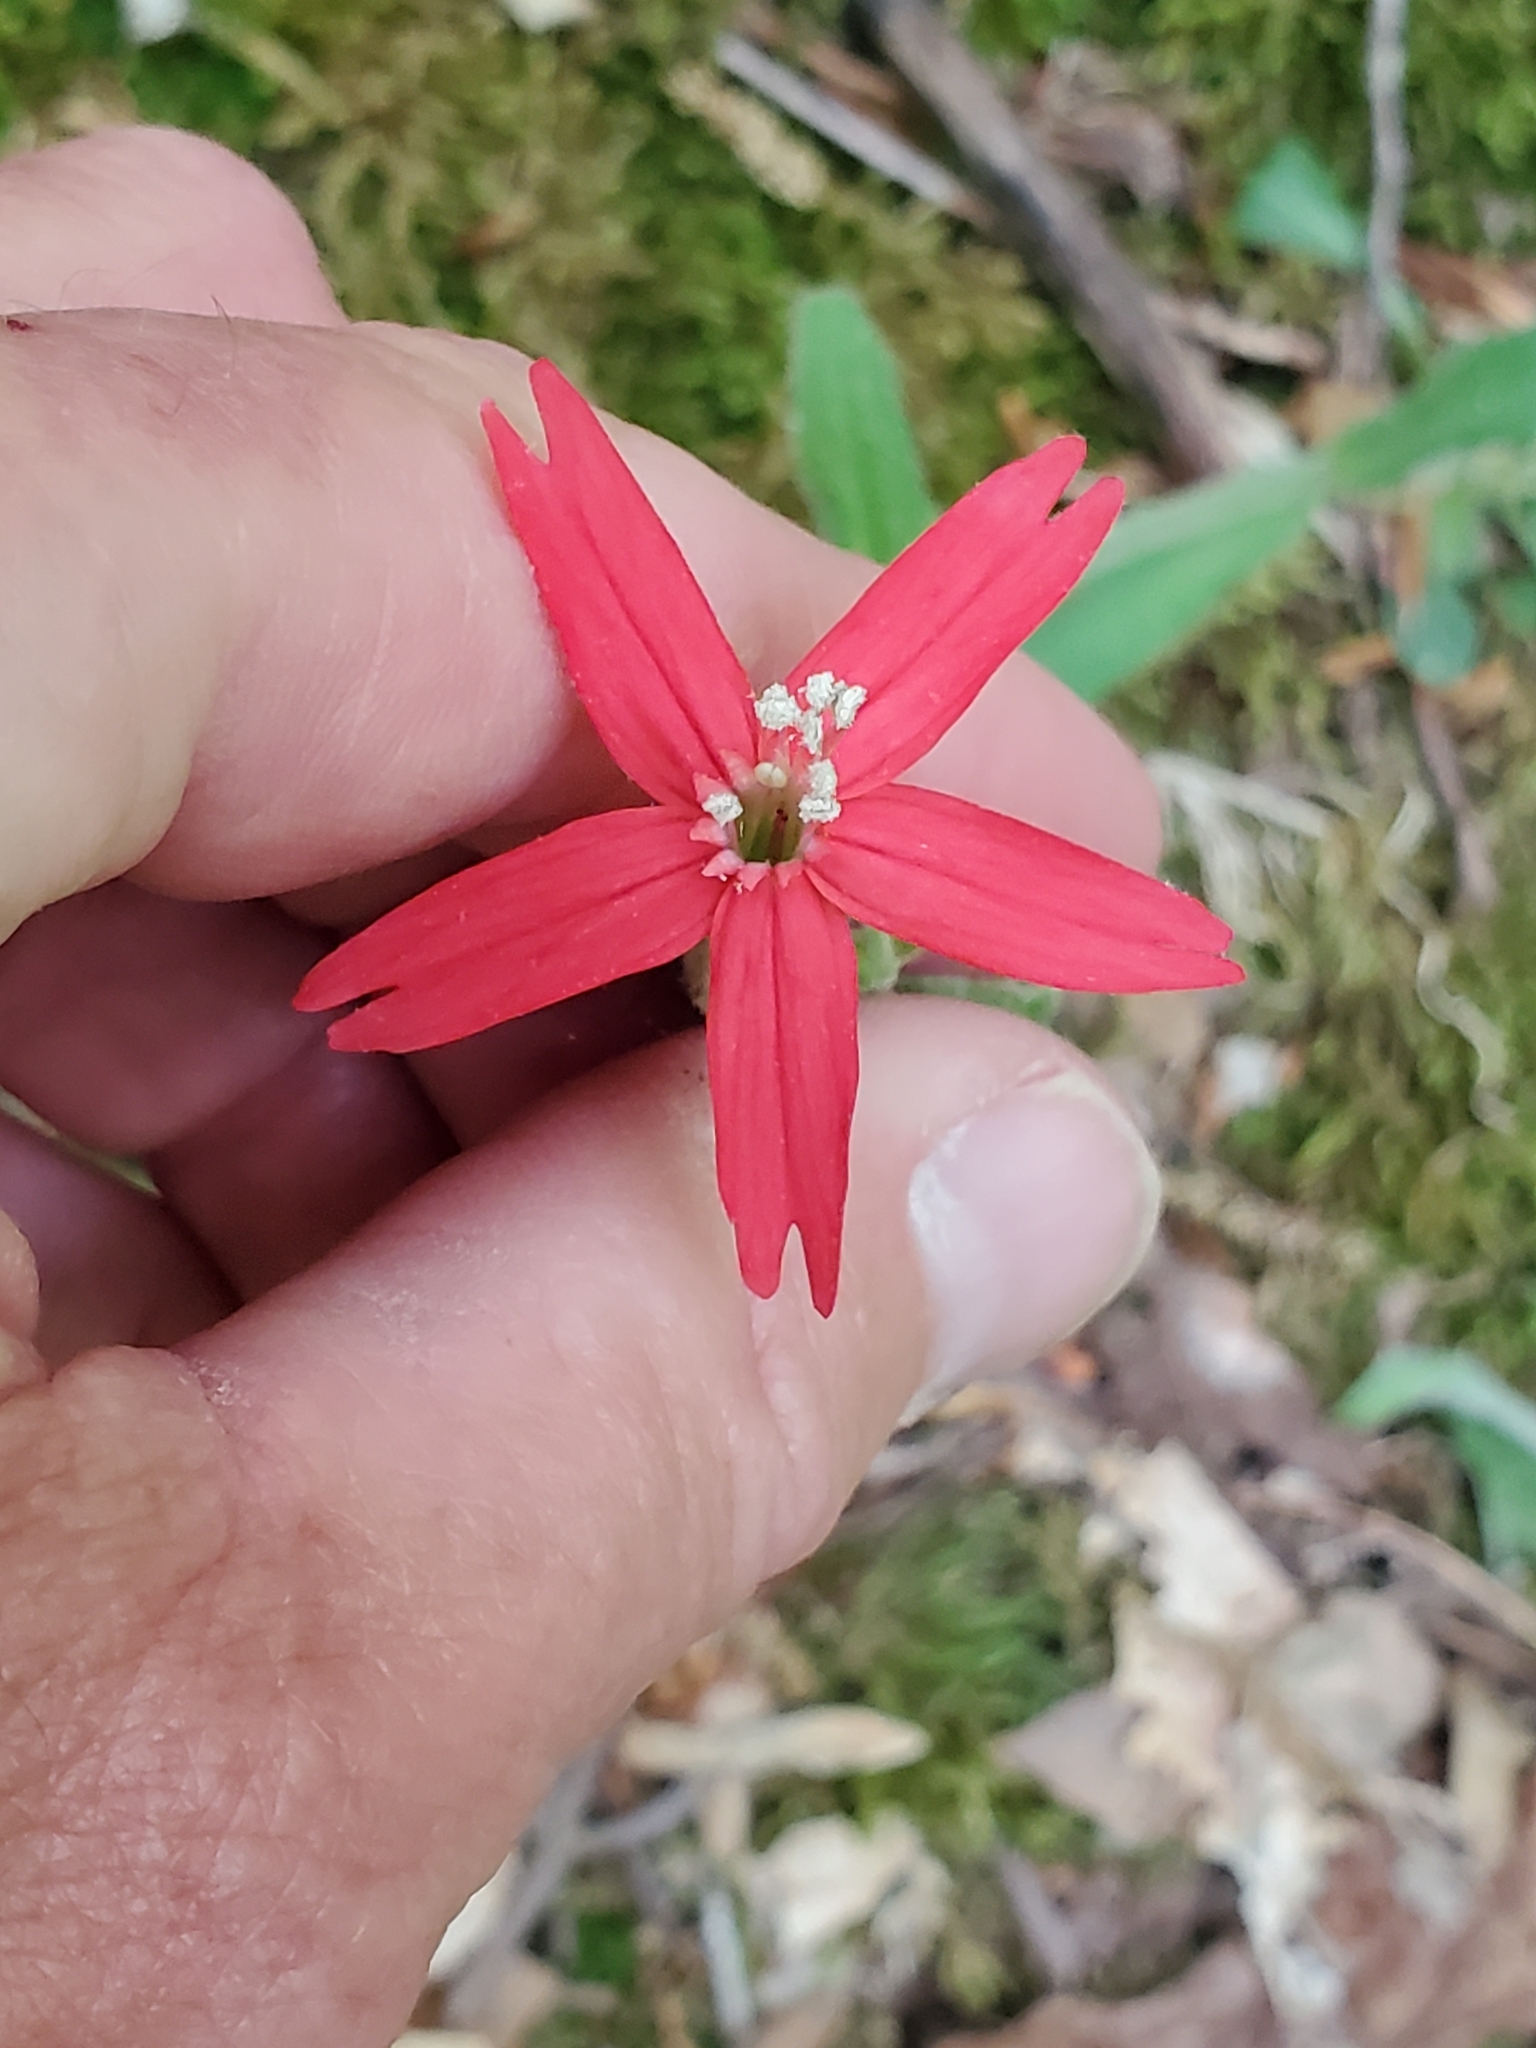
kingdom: Plantae
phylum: Tracheophyta
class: Magnoliopsida
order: Caryophyllales
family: Caryophyllaceae
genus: Silene
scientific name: Silene virginica
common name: Fire-pink
